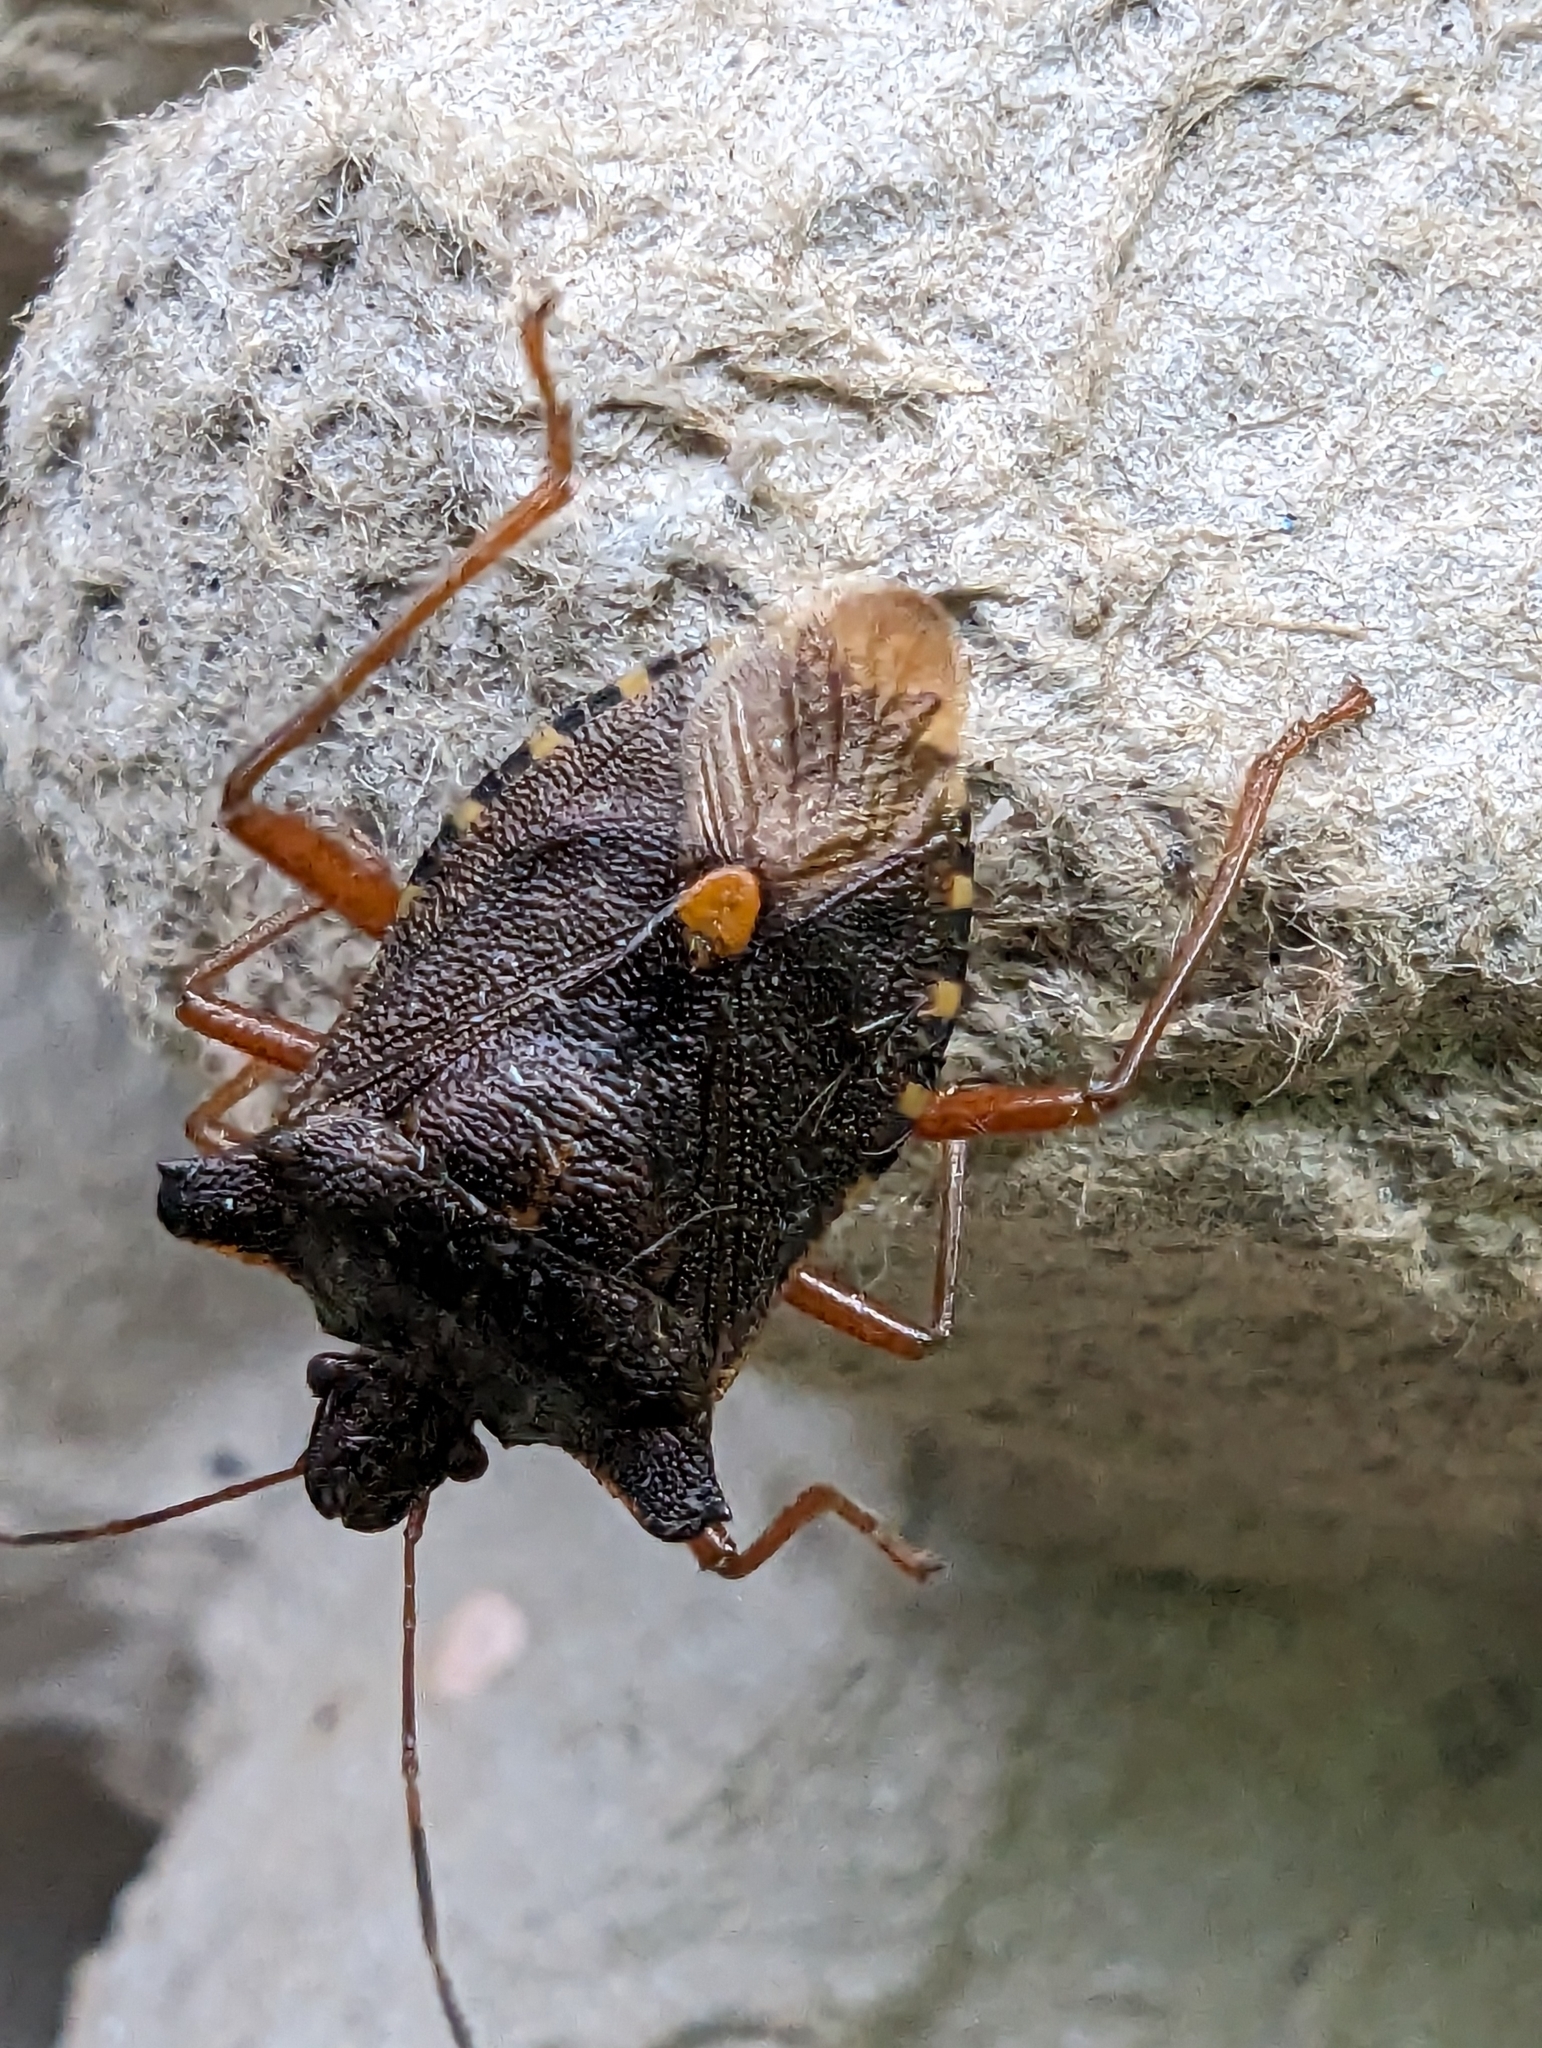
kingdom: Animalia
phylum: Arthropoda
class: Insecta
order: Hemiptera
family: Pentatomidae
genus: Pentatoma
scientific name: Pentatoma rufipes
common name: Forest bug
